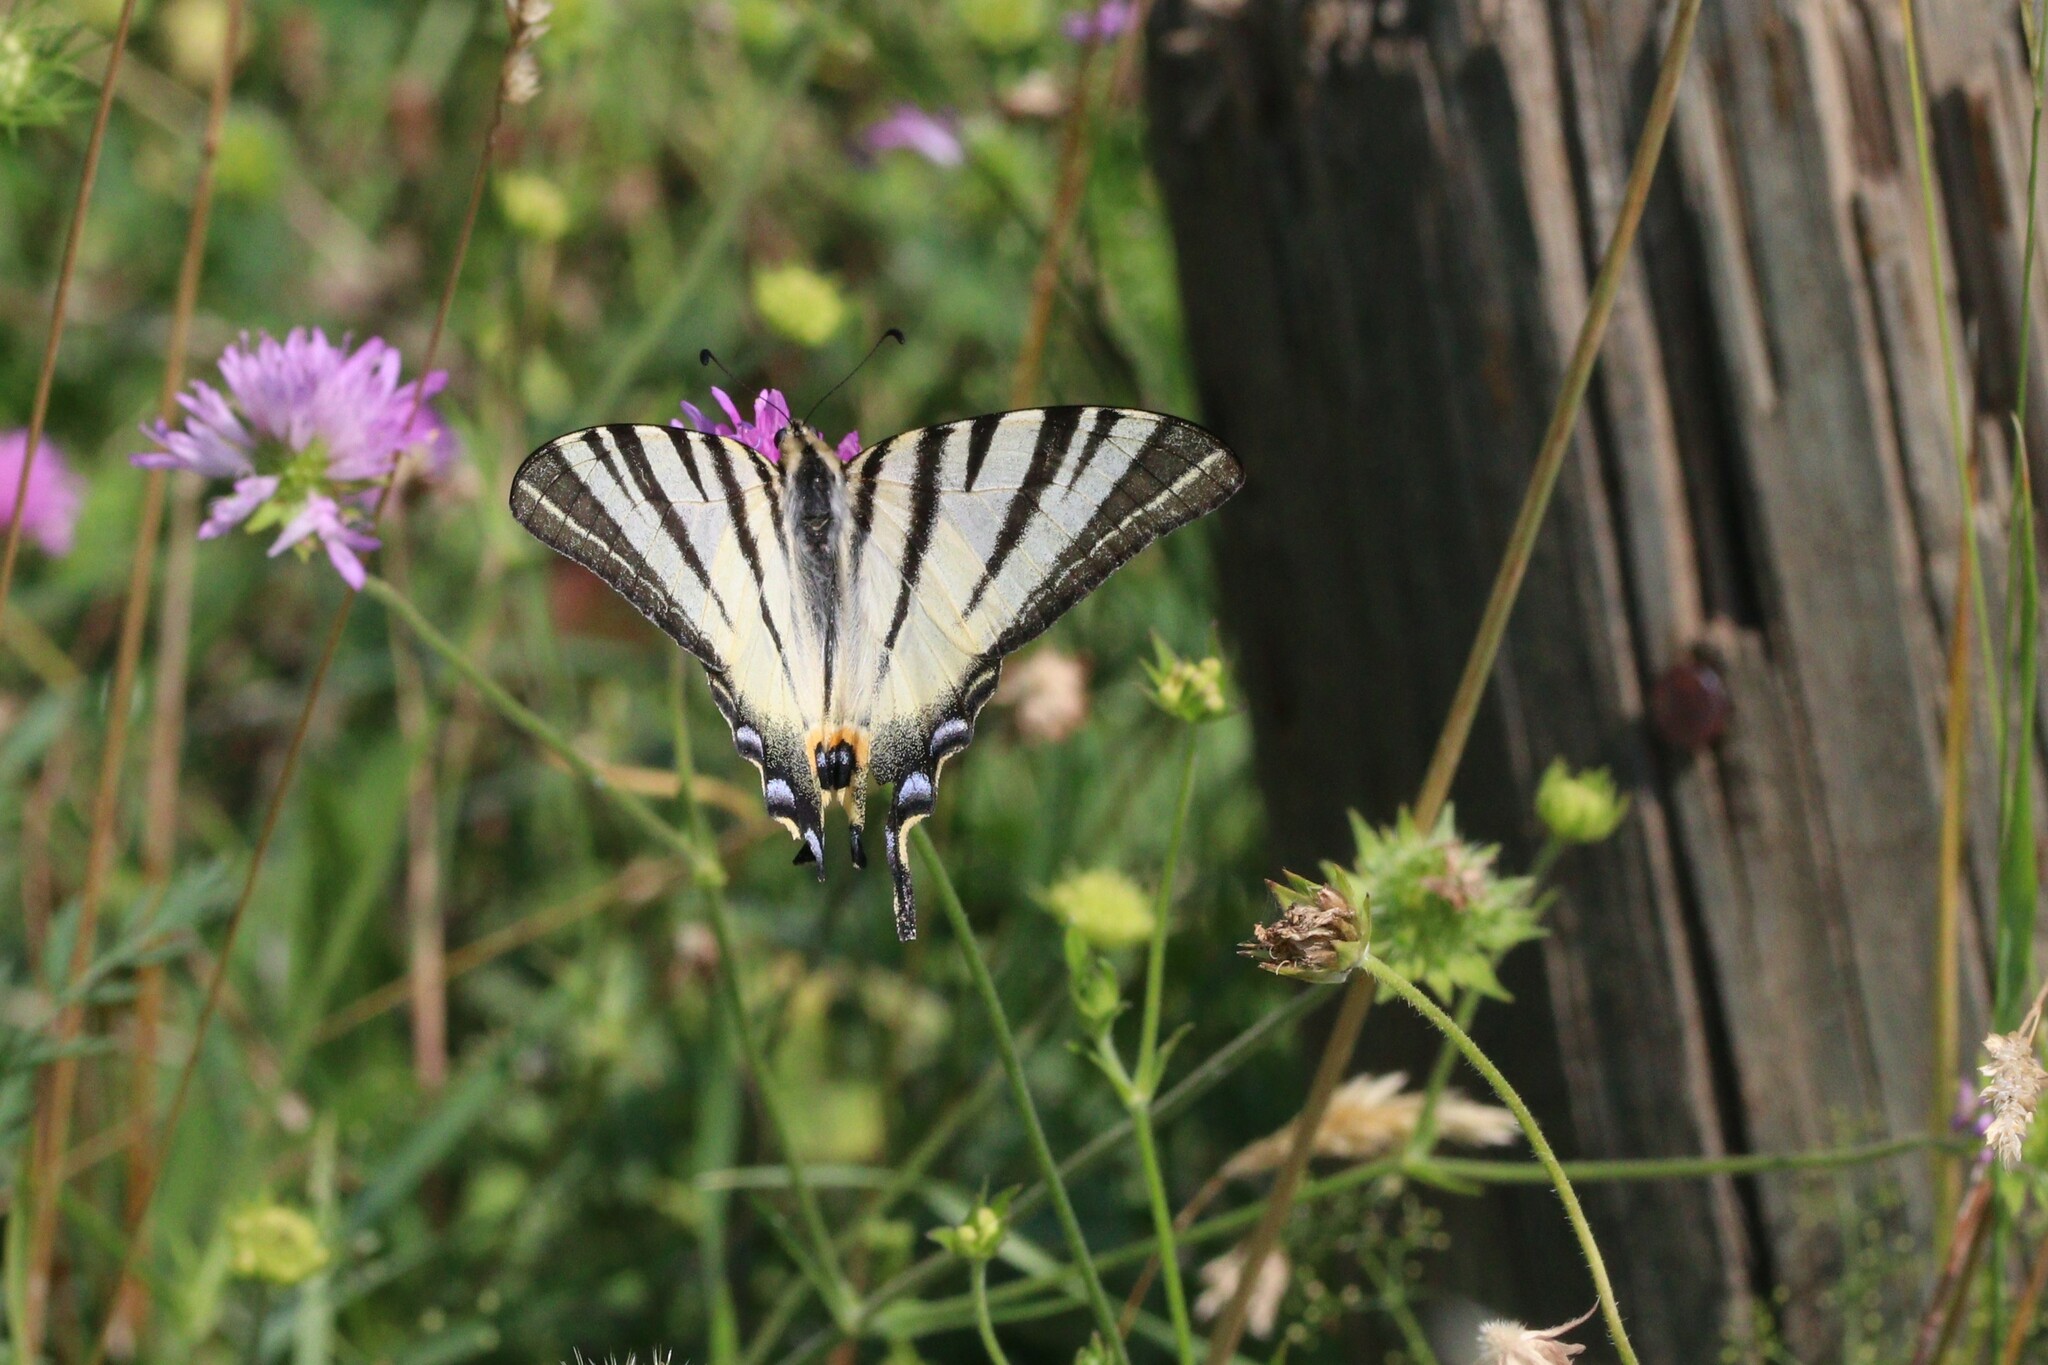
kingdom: Animalia
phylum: Arthropoda
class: Insecta
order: Lepidoptera
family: Papilionidae
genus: Iphiclides
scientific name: Iphiclides podalirius
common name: Scarce swallowtail
